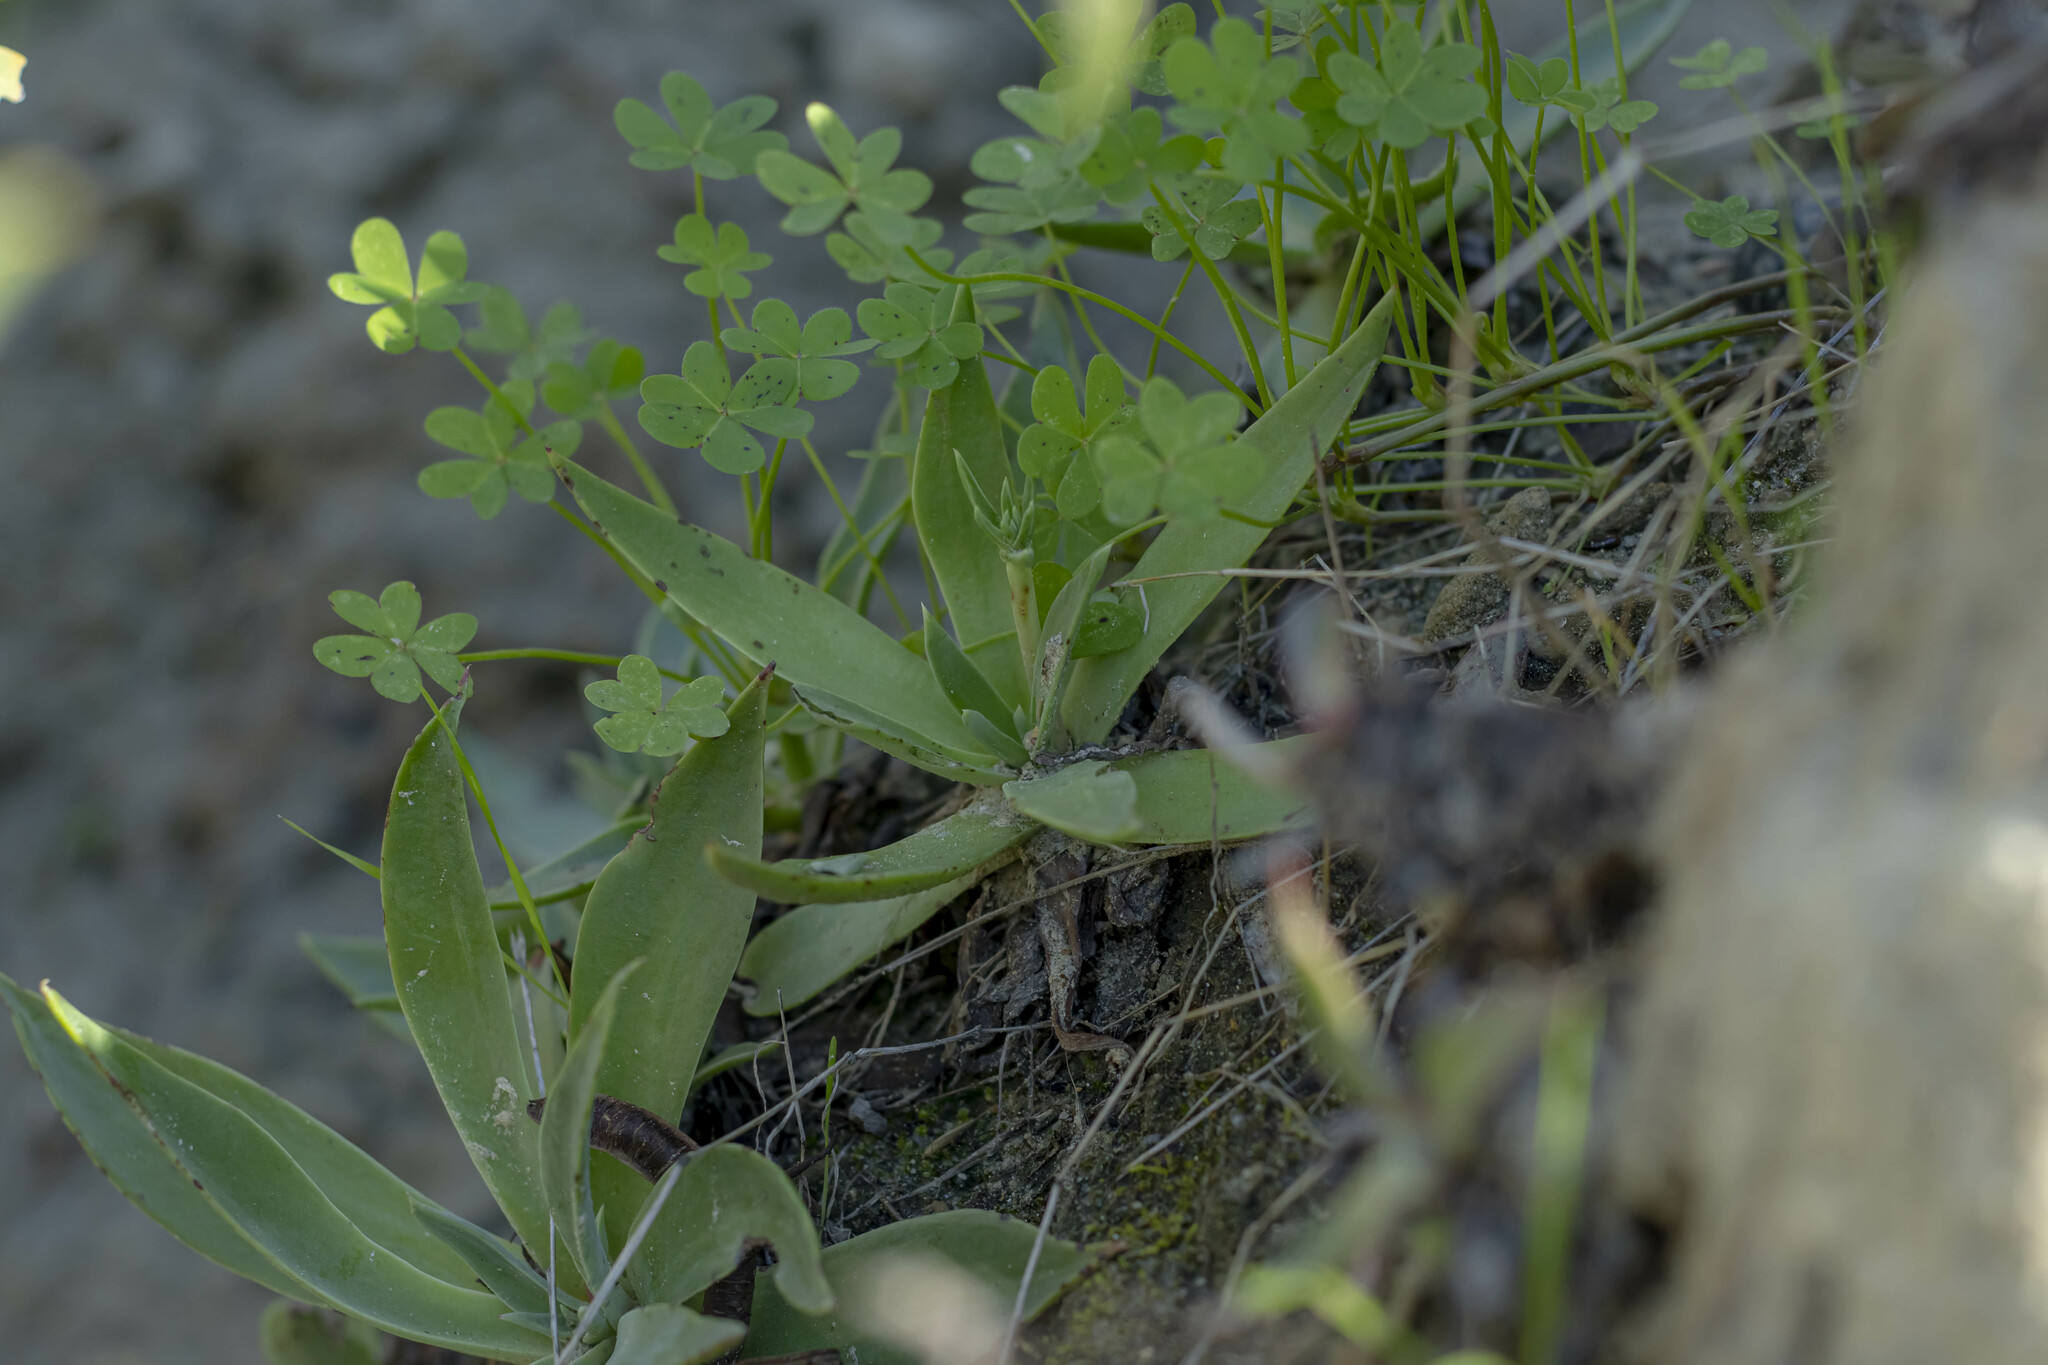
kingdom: Plantae
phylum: Tracheophyta
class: Magnoliopsida
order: Saxifragales
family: Crassulaceae
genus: Dudleya
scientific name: Dudleya lanceolata
